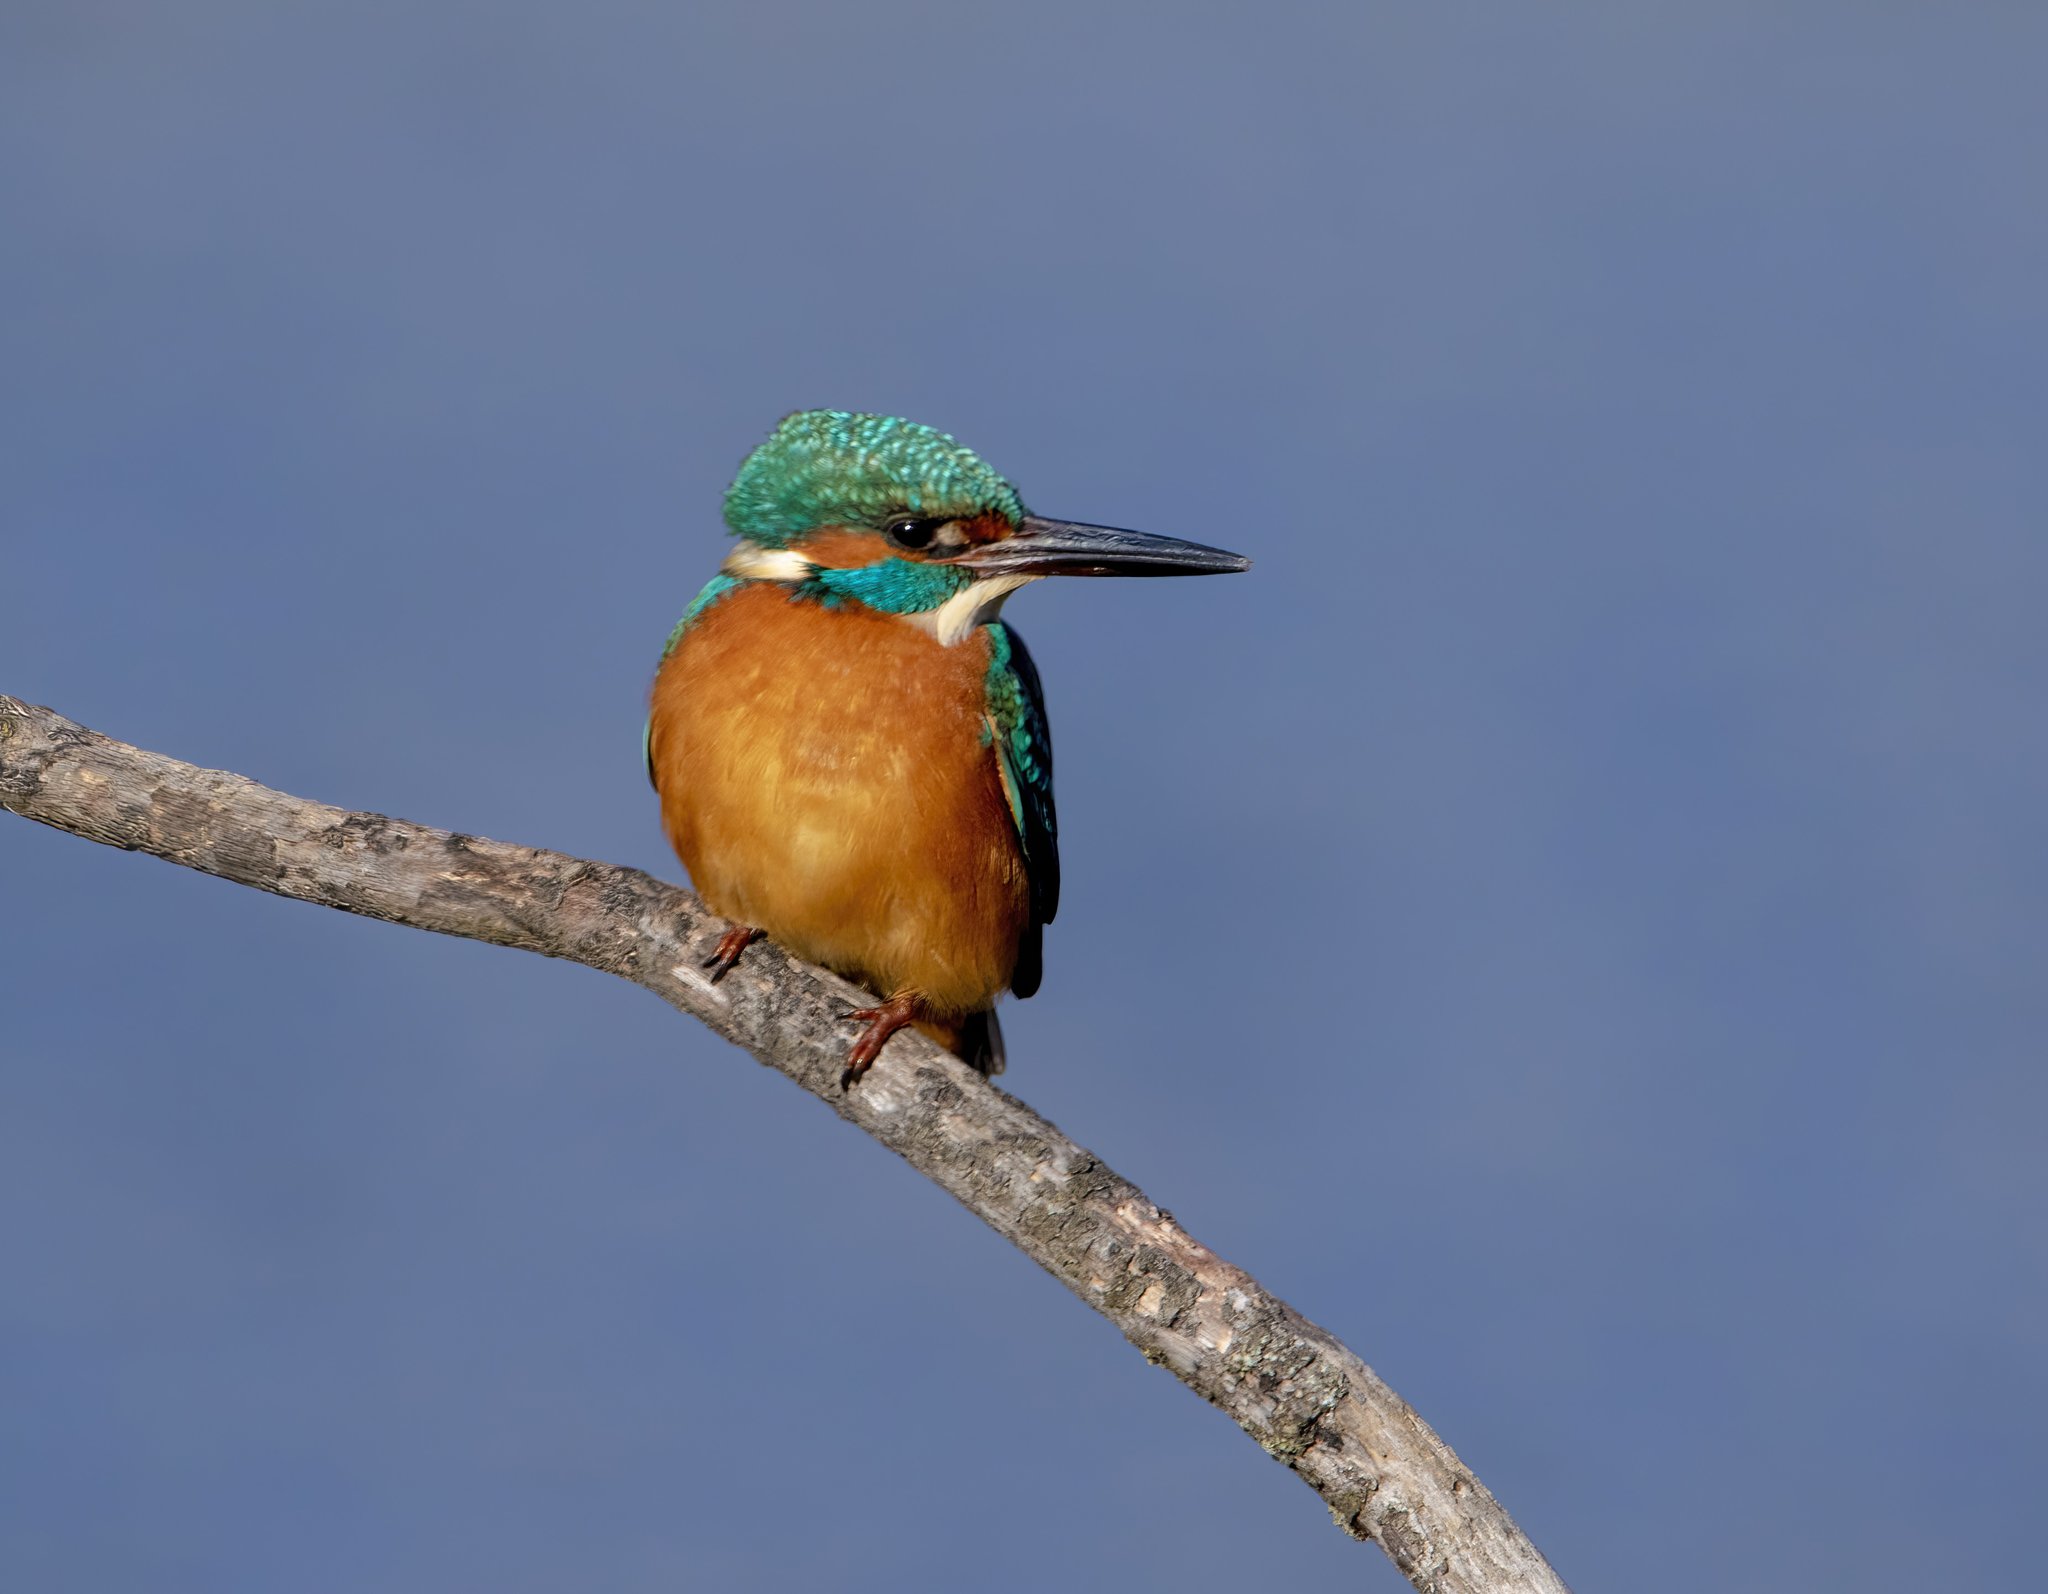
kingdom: Animalia
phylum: Chordata
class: Aves
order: Coraciiformes
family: Alcedinidae
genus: Alcedo
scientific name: Alcedo atthis
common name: Common kingfisher
